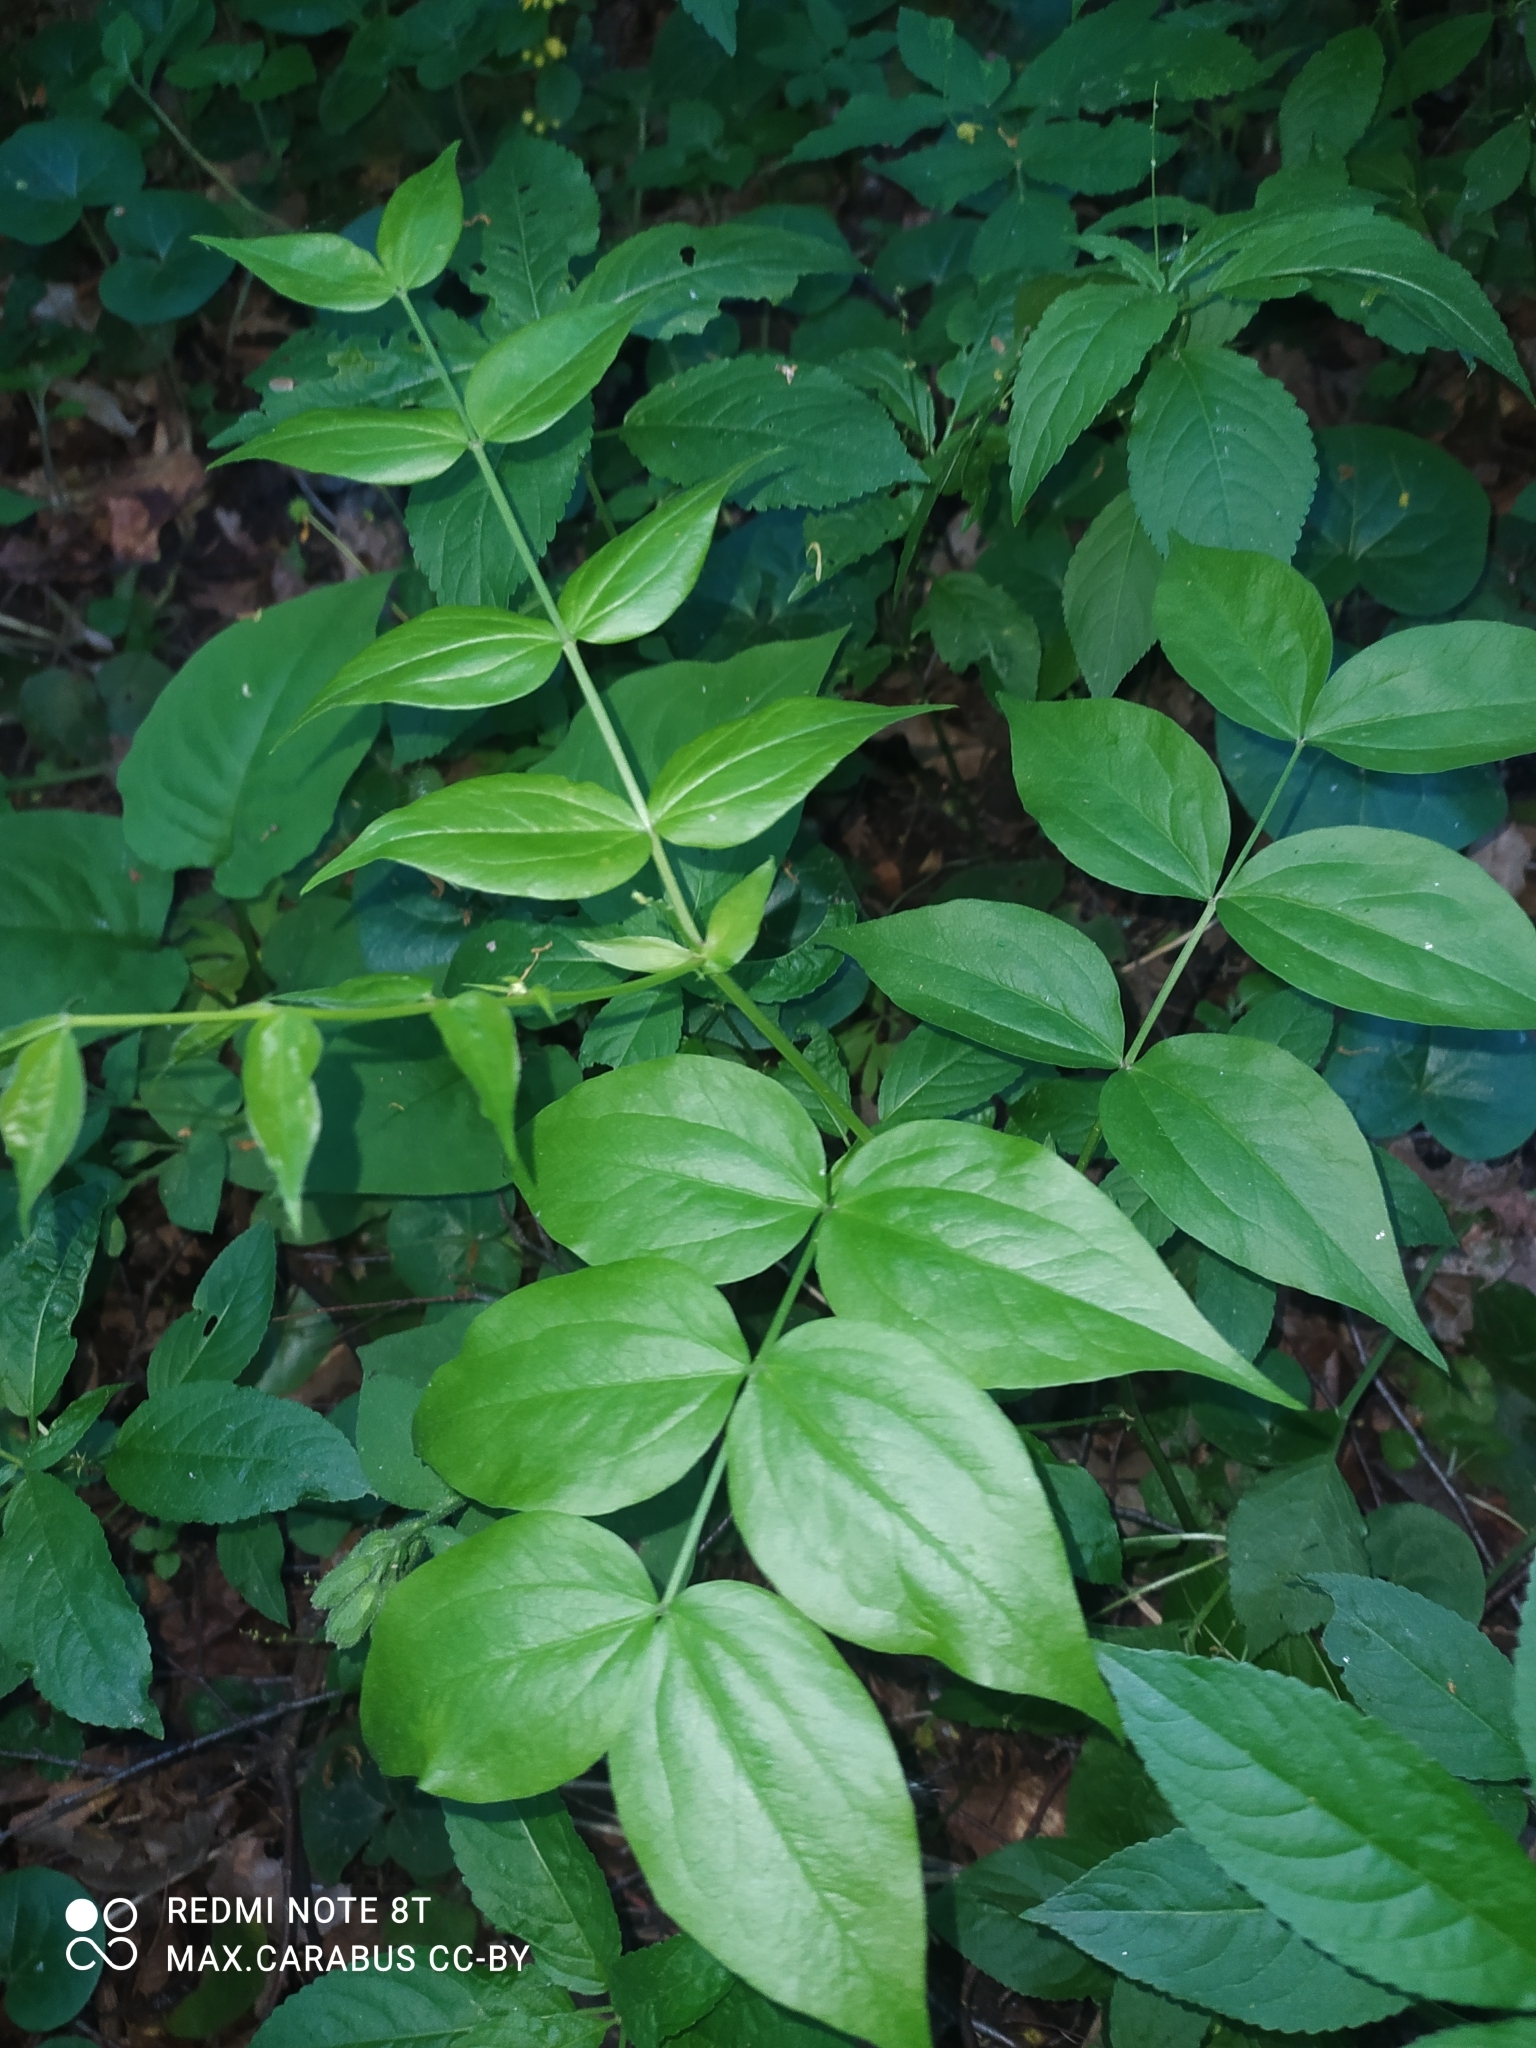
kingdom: Plantae
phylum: Tracheophyta
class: Magnoliopsida
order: Fabales
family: Fabaceae
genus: Lathyrus
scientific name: Lathyrus vernus
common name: Spring pea
